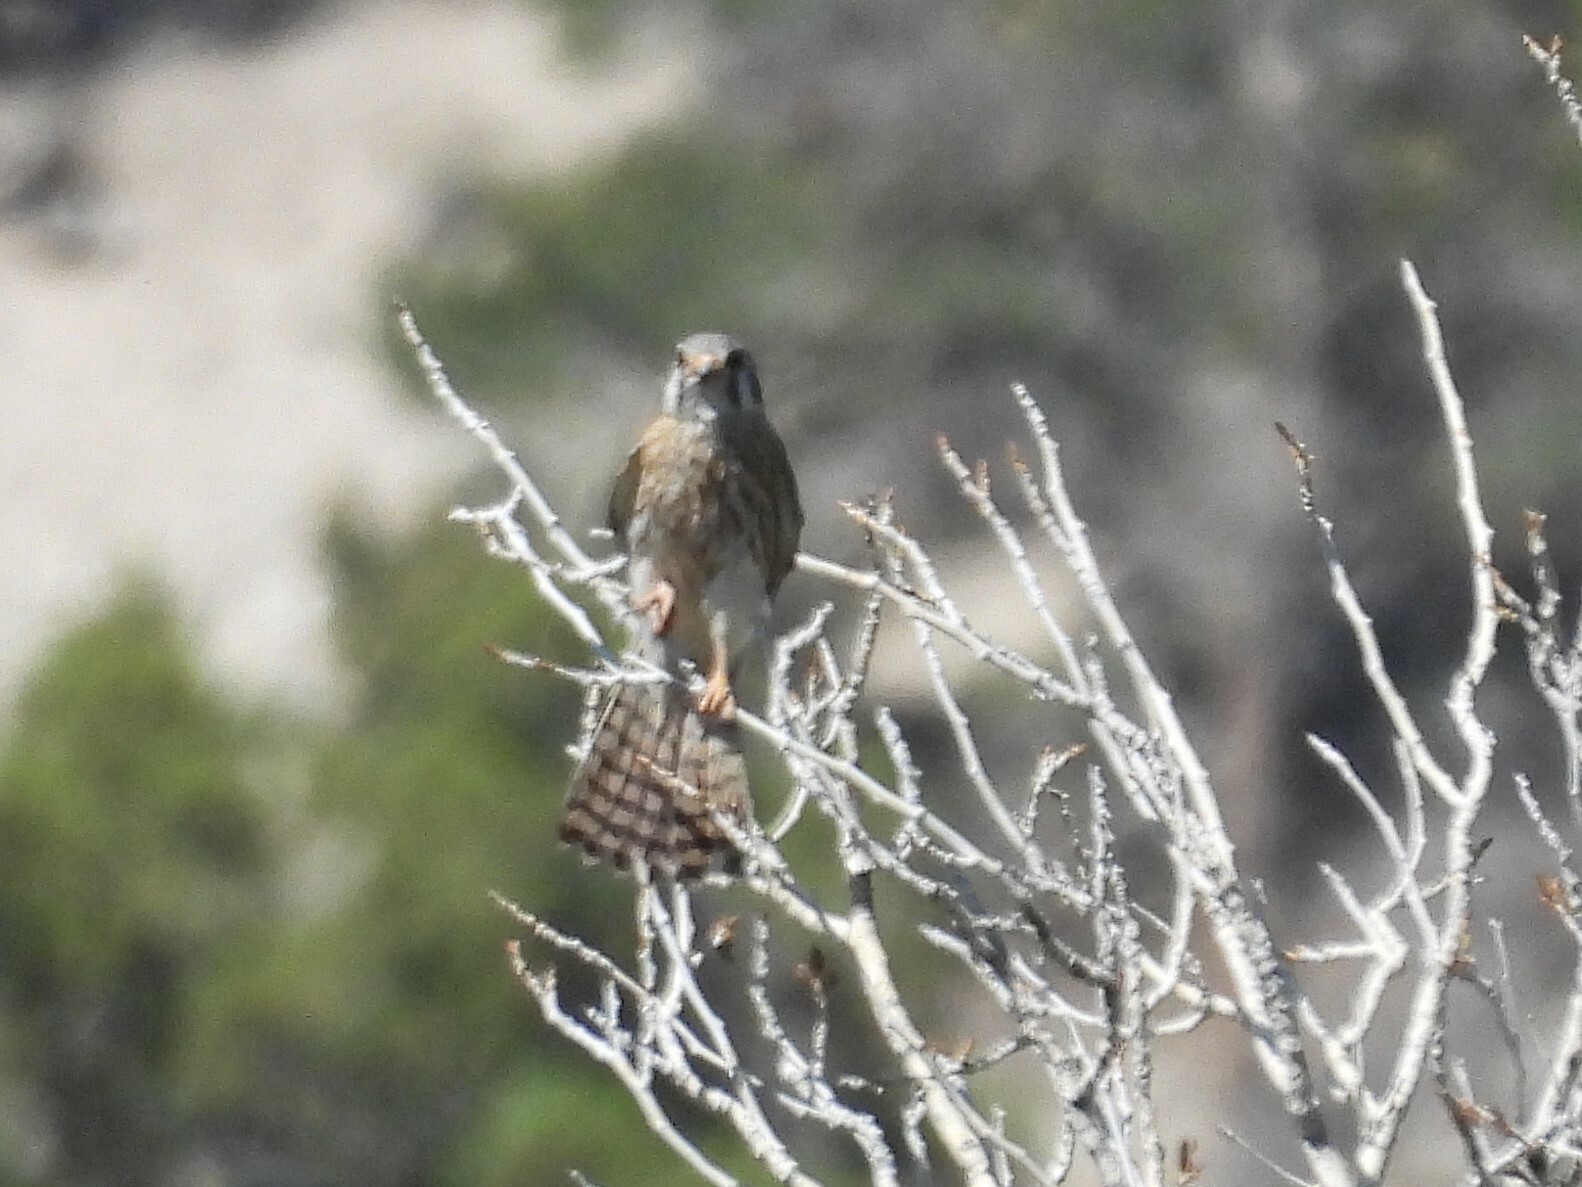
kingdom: Animalia
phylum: Chordata
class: Aves
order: Falconiformes
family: Falconidae
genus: Falco
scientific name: Falco sparverius
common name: American kestrel
